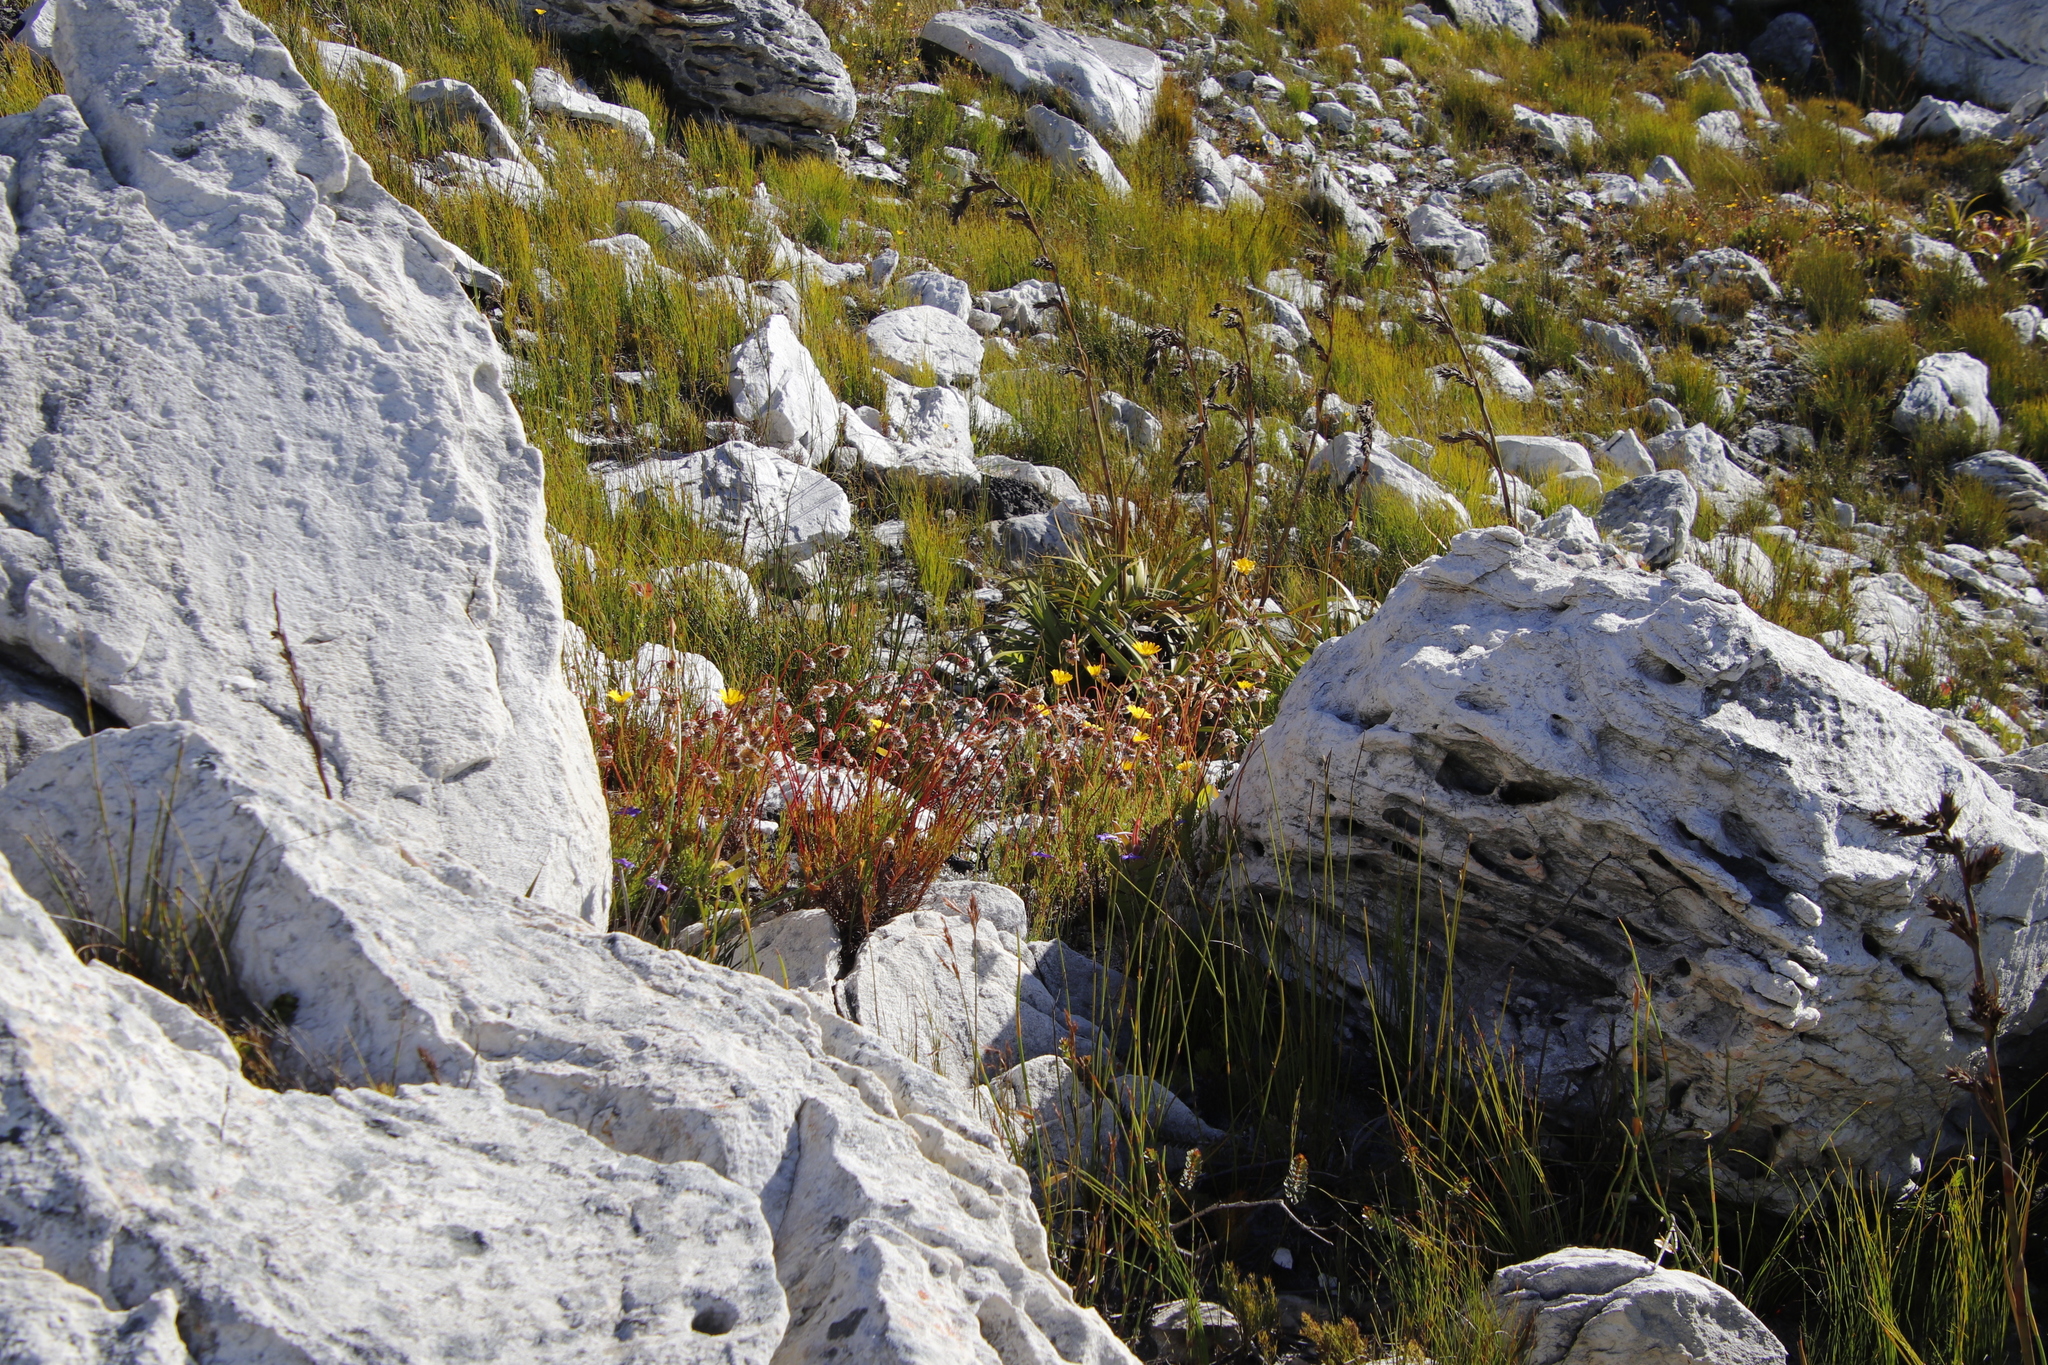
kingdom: Plantae
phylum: Tracheophyta
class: Magnoliopsida
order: Asterales
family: Asteraceae
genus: Euryops
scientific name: Euryops abrotanifolius
